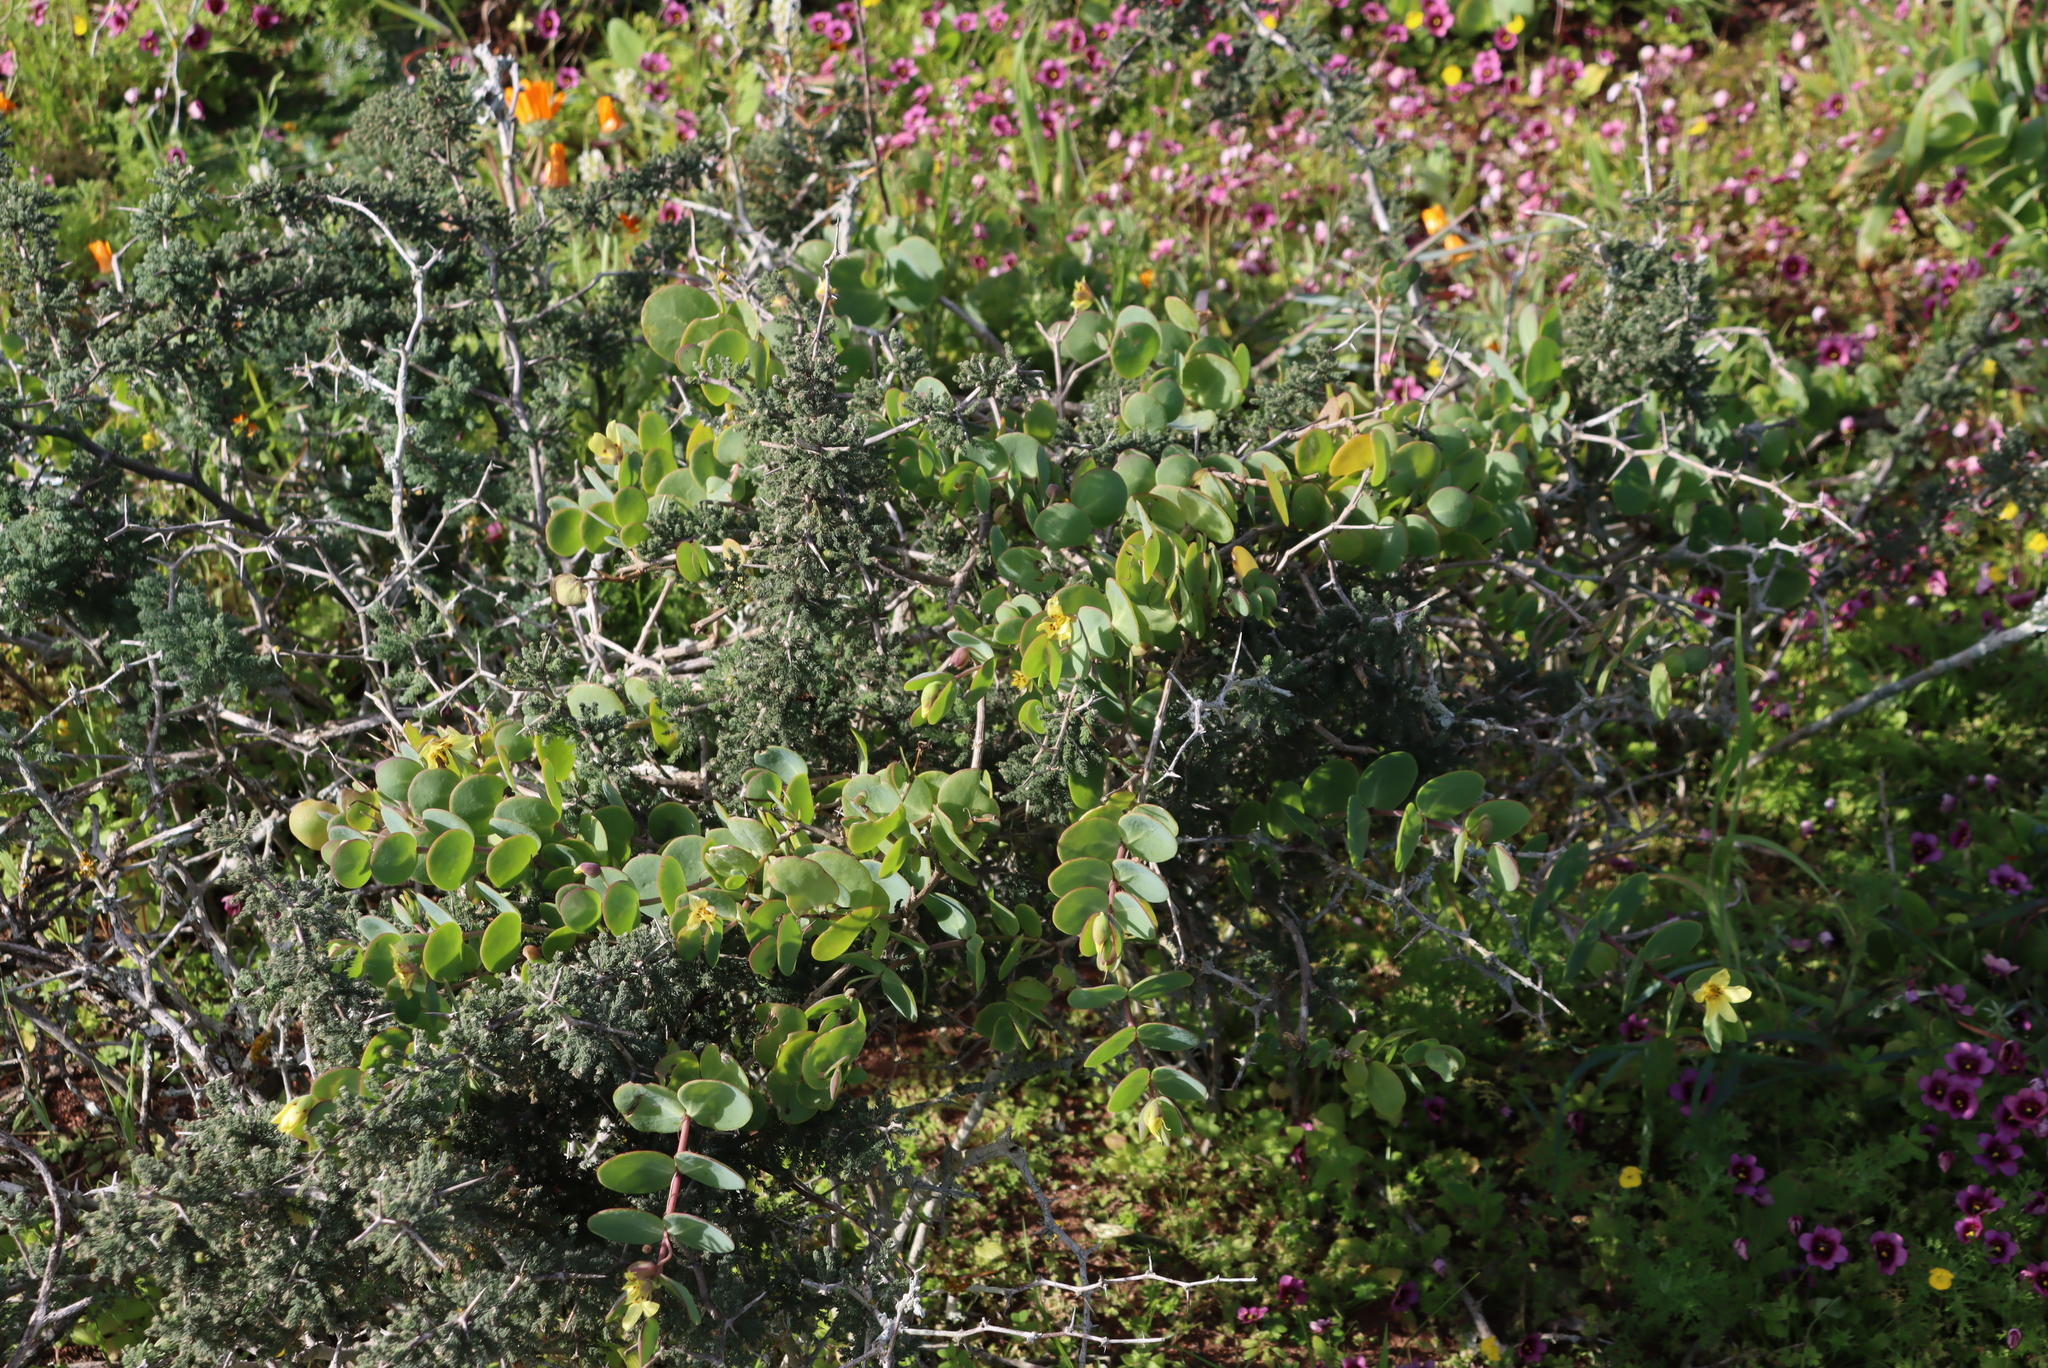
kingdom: Plantae
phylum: Tracheophyta
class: Magnoliopsida
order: Zygophyllales
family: Zygophyllaceae
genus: Roepera
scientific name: Roepera cordifolia
